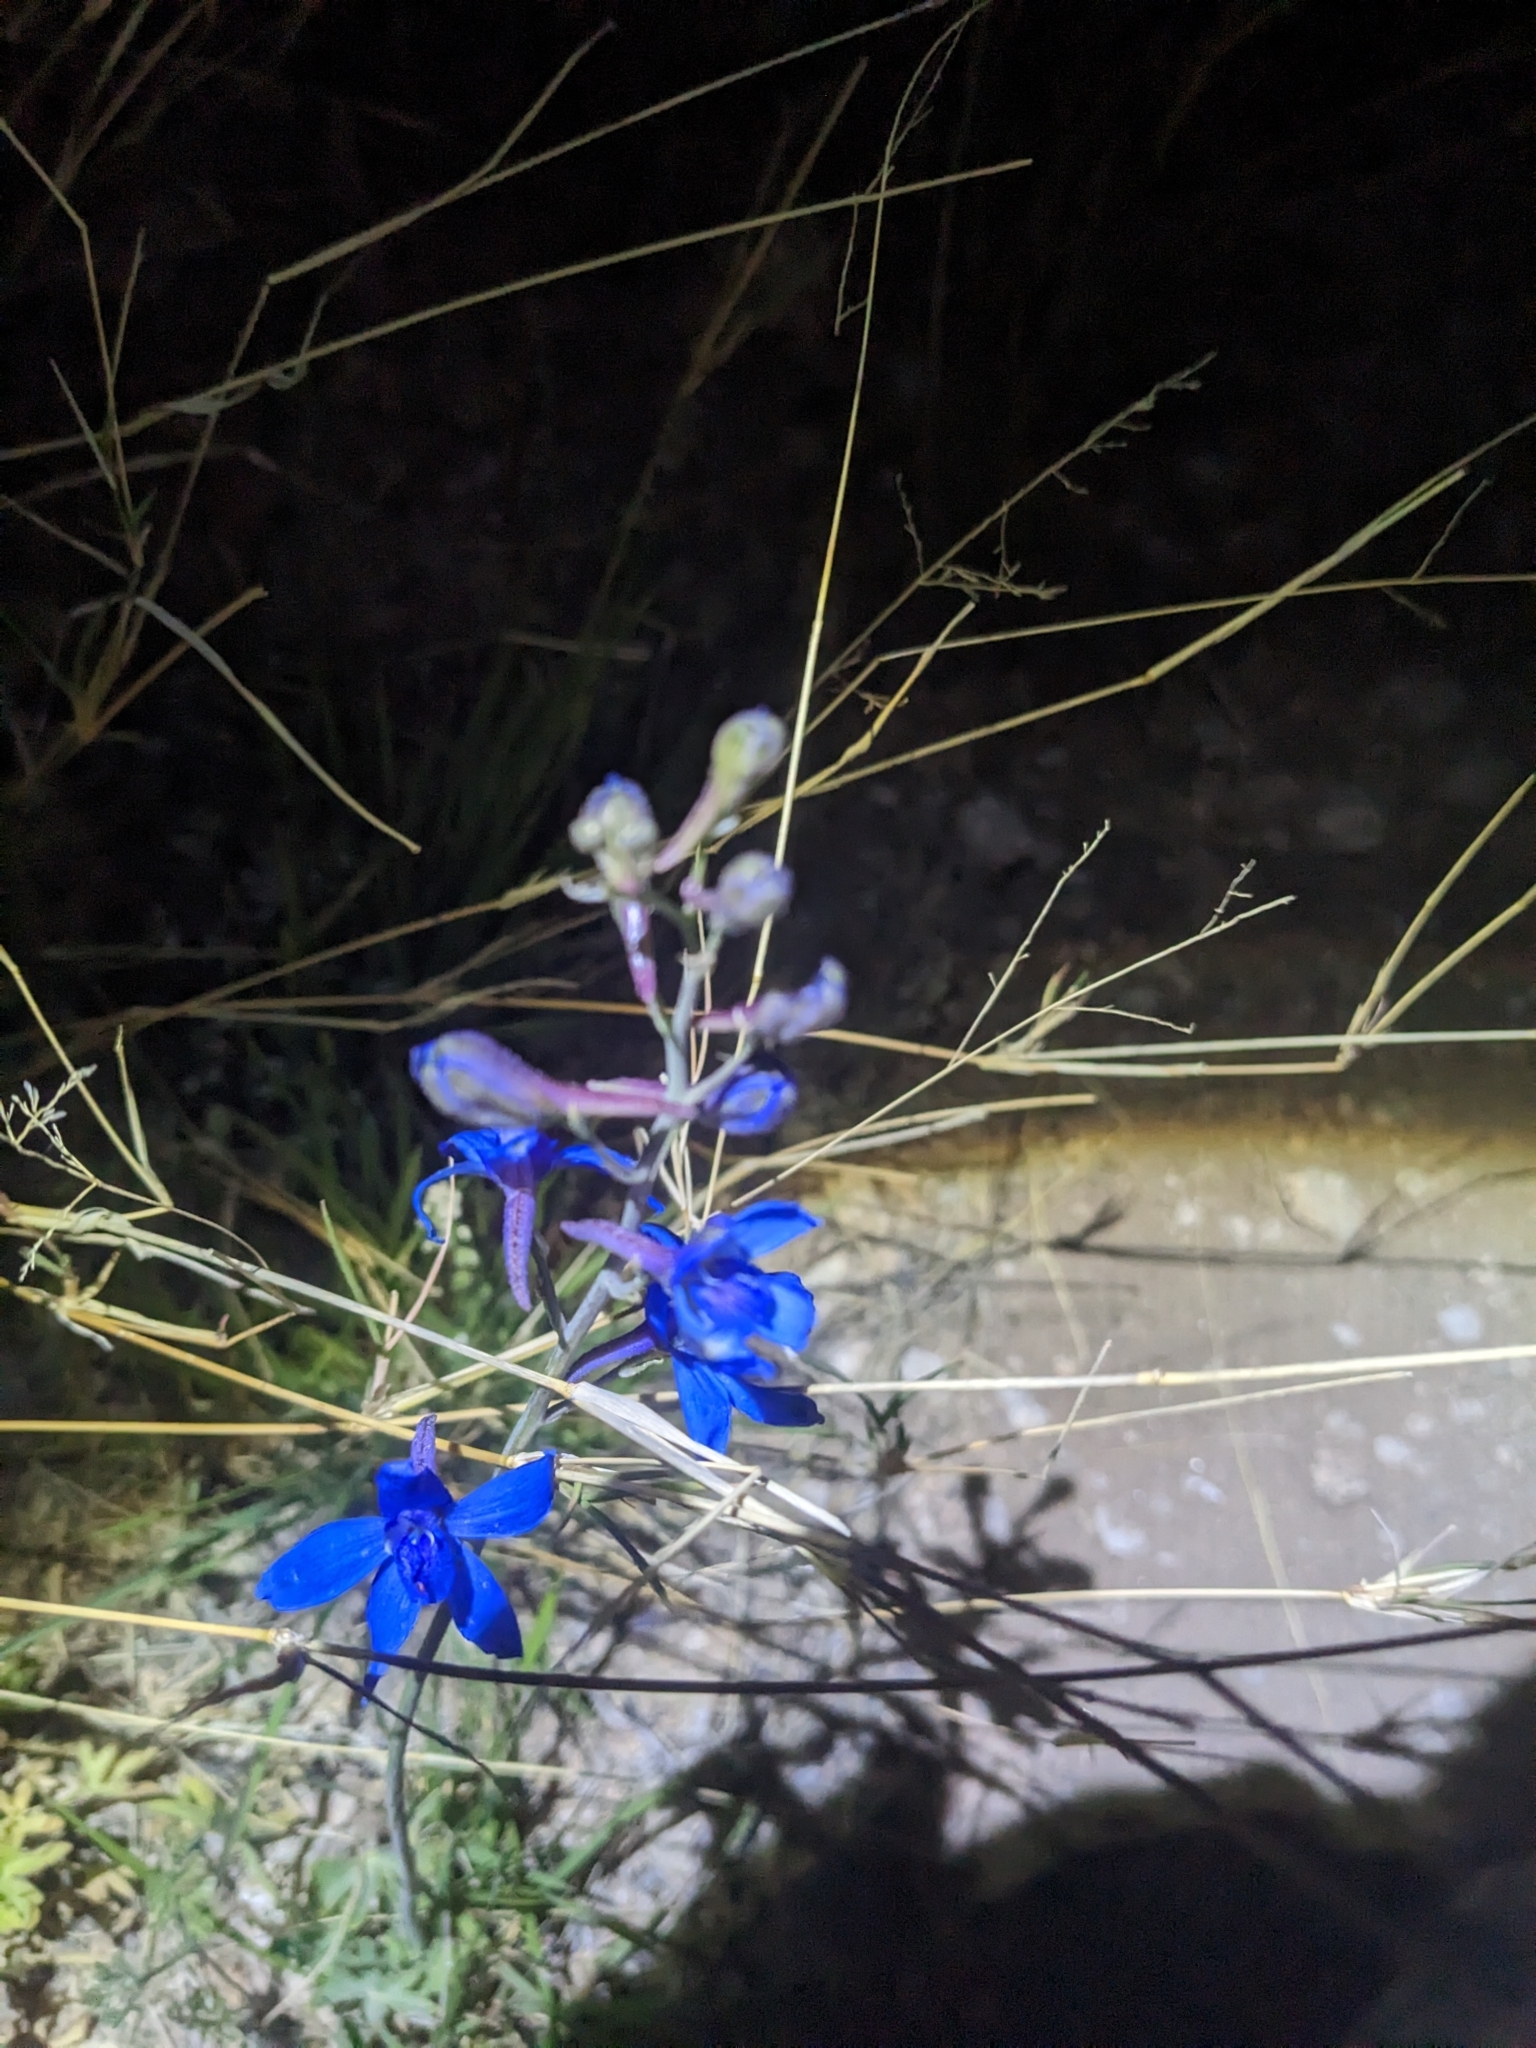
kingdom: Plantae
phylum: Tracheophyta
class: Magnoliopsida
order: Ranunculales
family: Ranunculaceae
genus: Delphinium
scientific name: Delphinium scaposum
